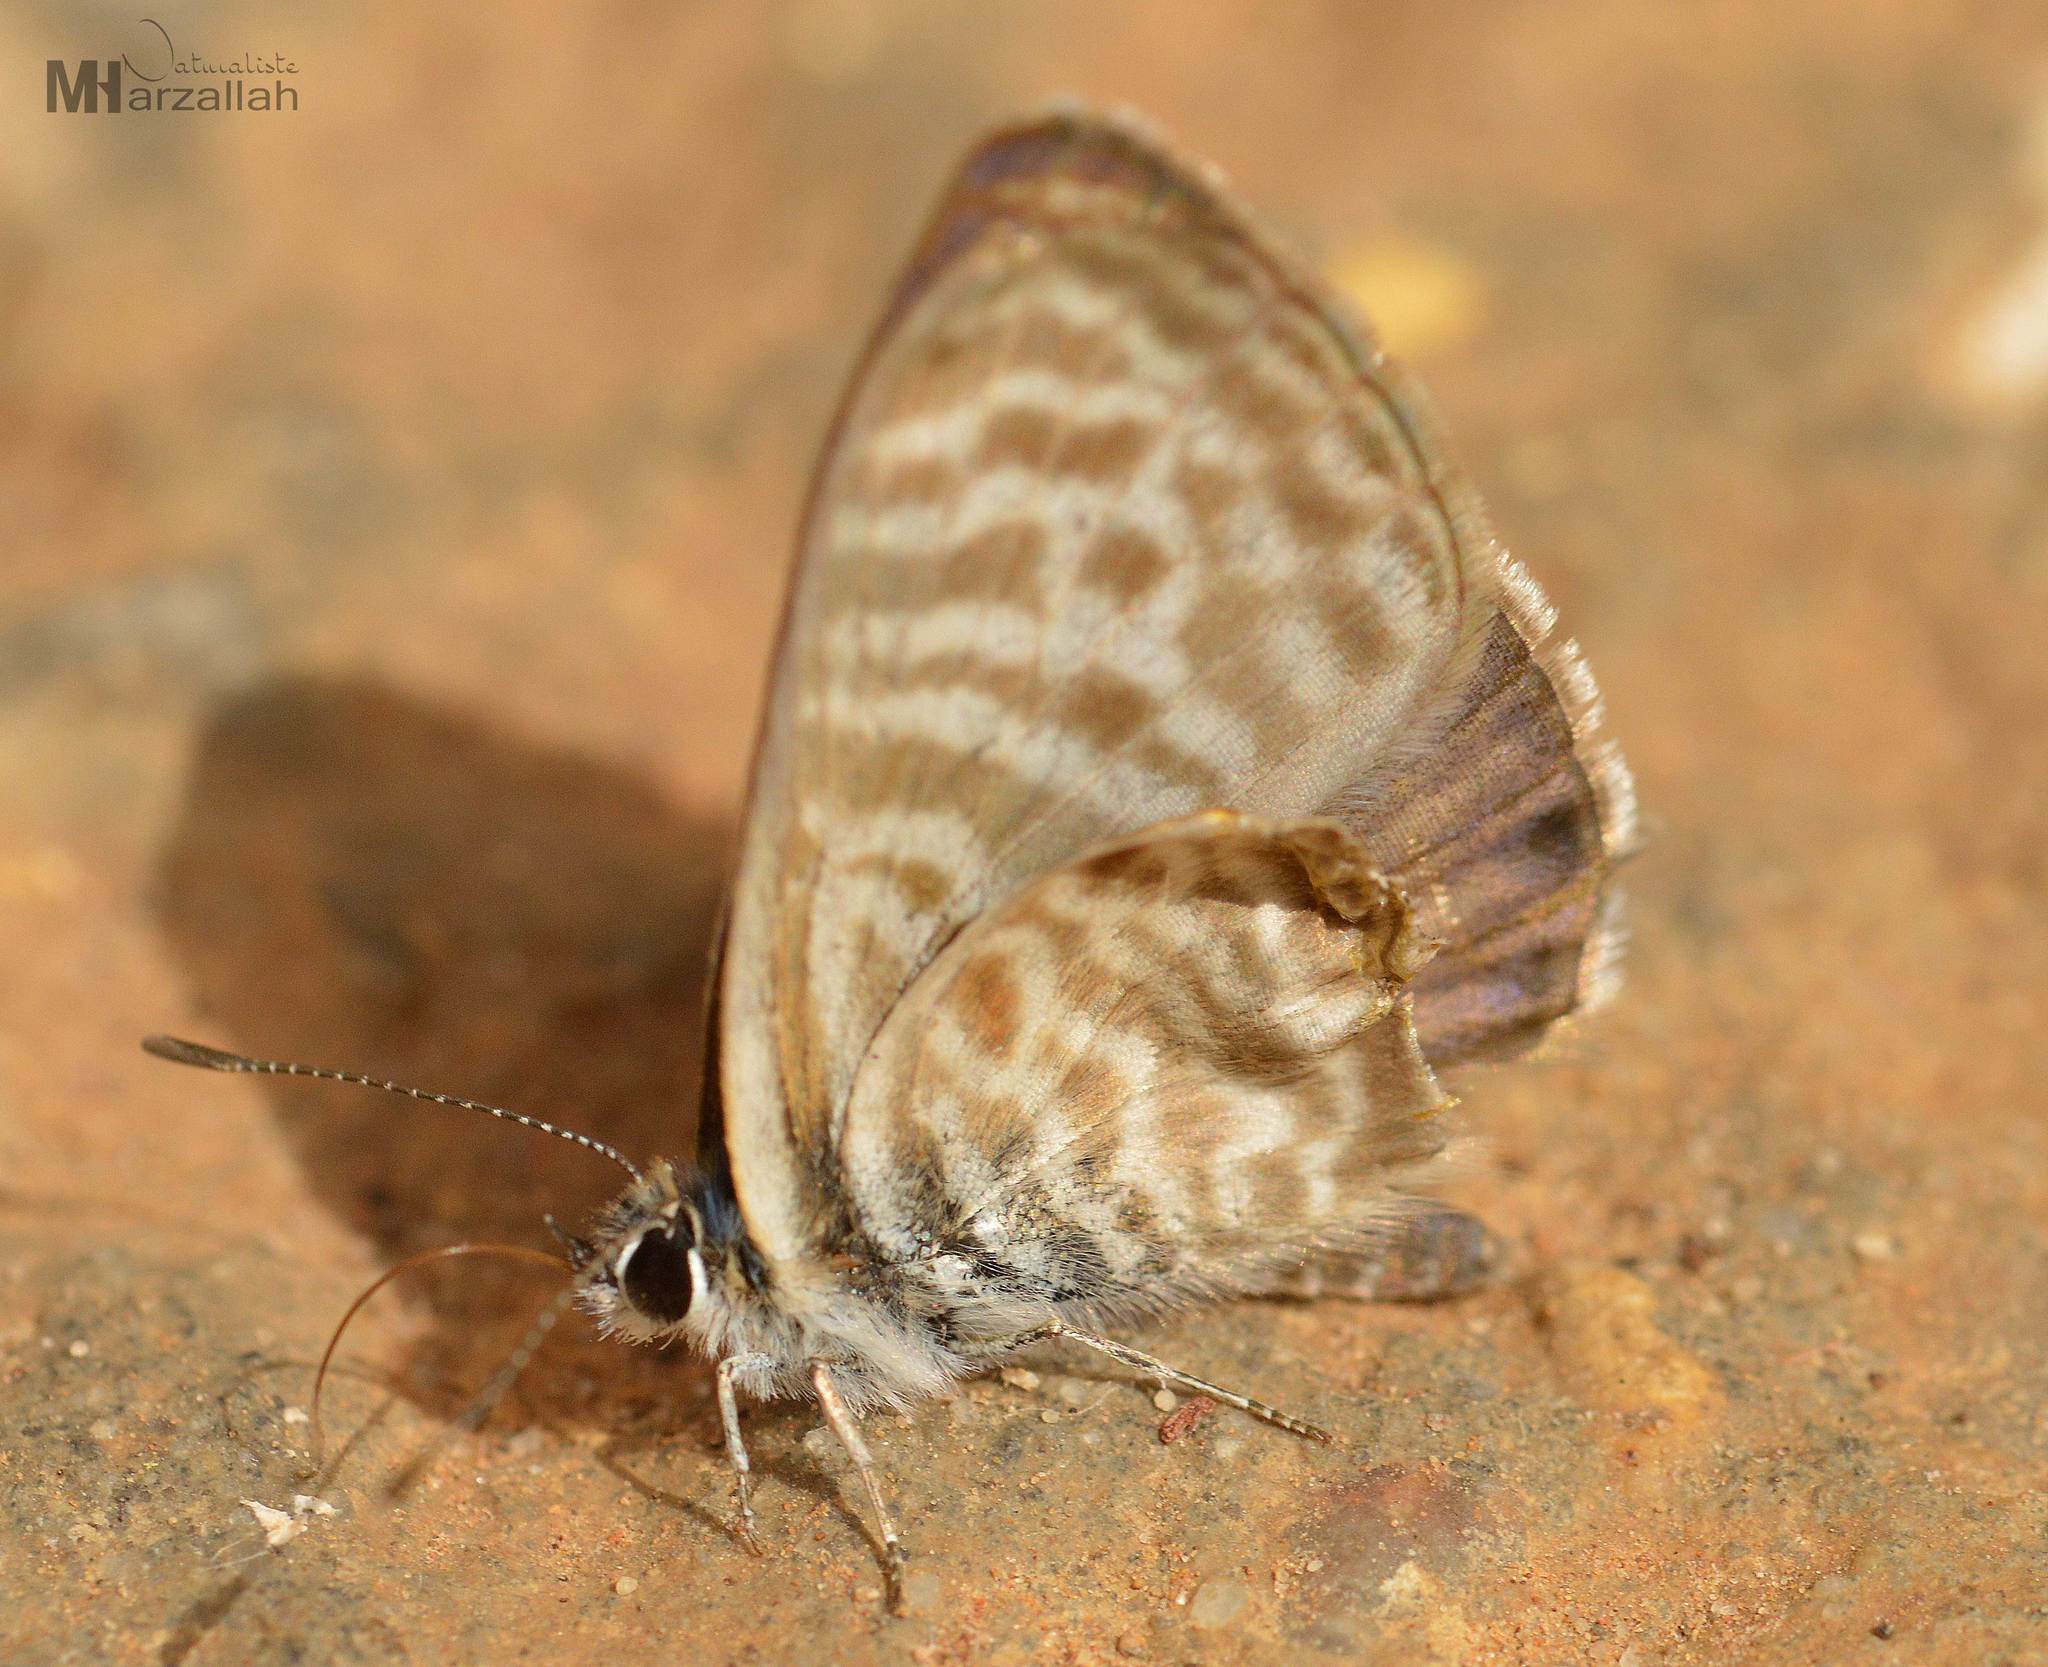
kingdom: Animalia
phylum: Arthropoda
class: Insecta
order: Lepidoptera
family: Lycaenidae
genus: Leptotes
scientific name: Leptotes pirithous
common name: Lang's short-tailed blue
